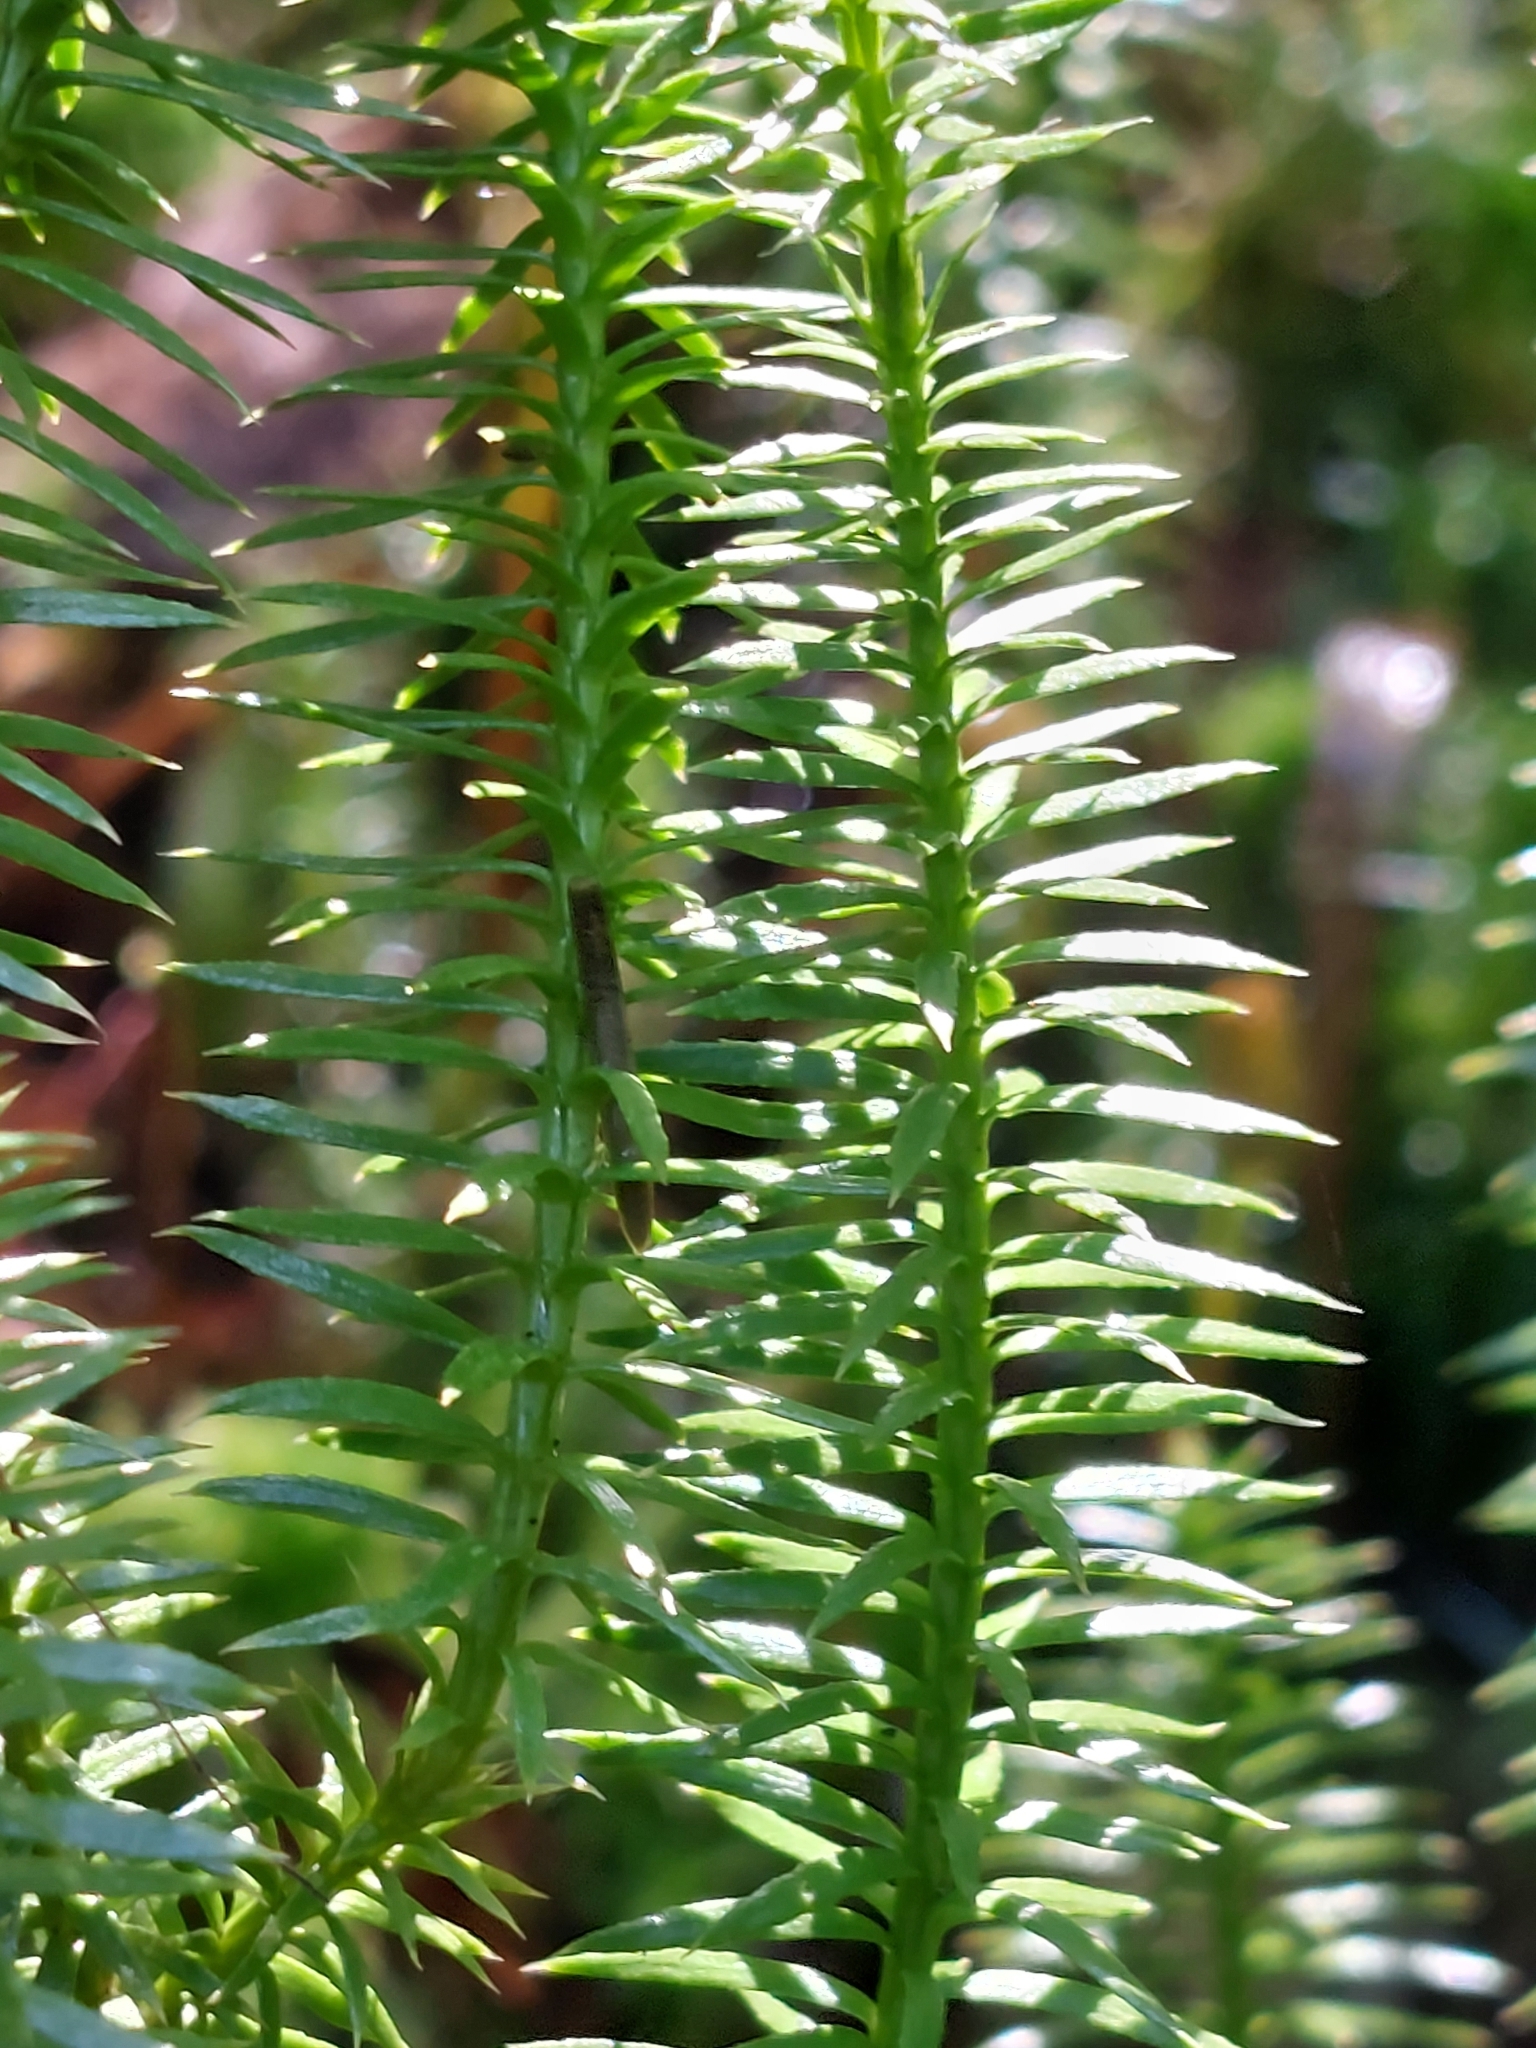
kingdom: Plantae
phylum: Tracheophyta
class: Lycopodiopsida
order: Lycopodiales
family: Lycopodiaceae
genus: Spinulum
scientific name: Spinulum annotinum
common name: Interrupted club-moss
